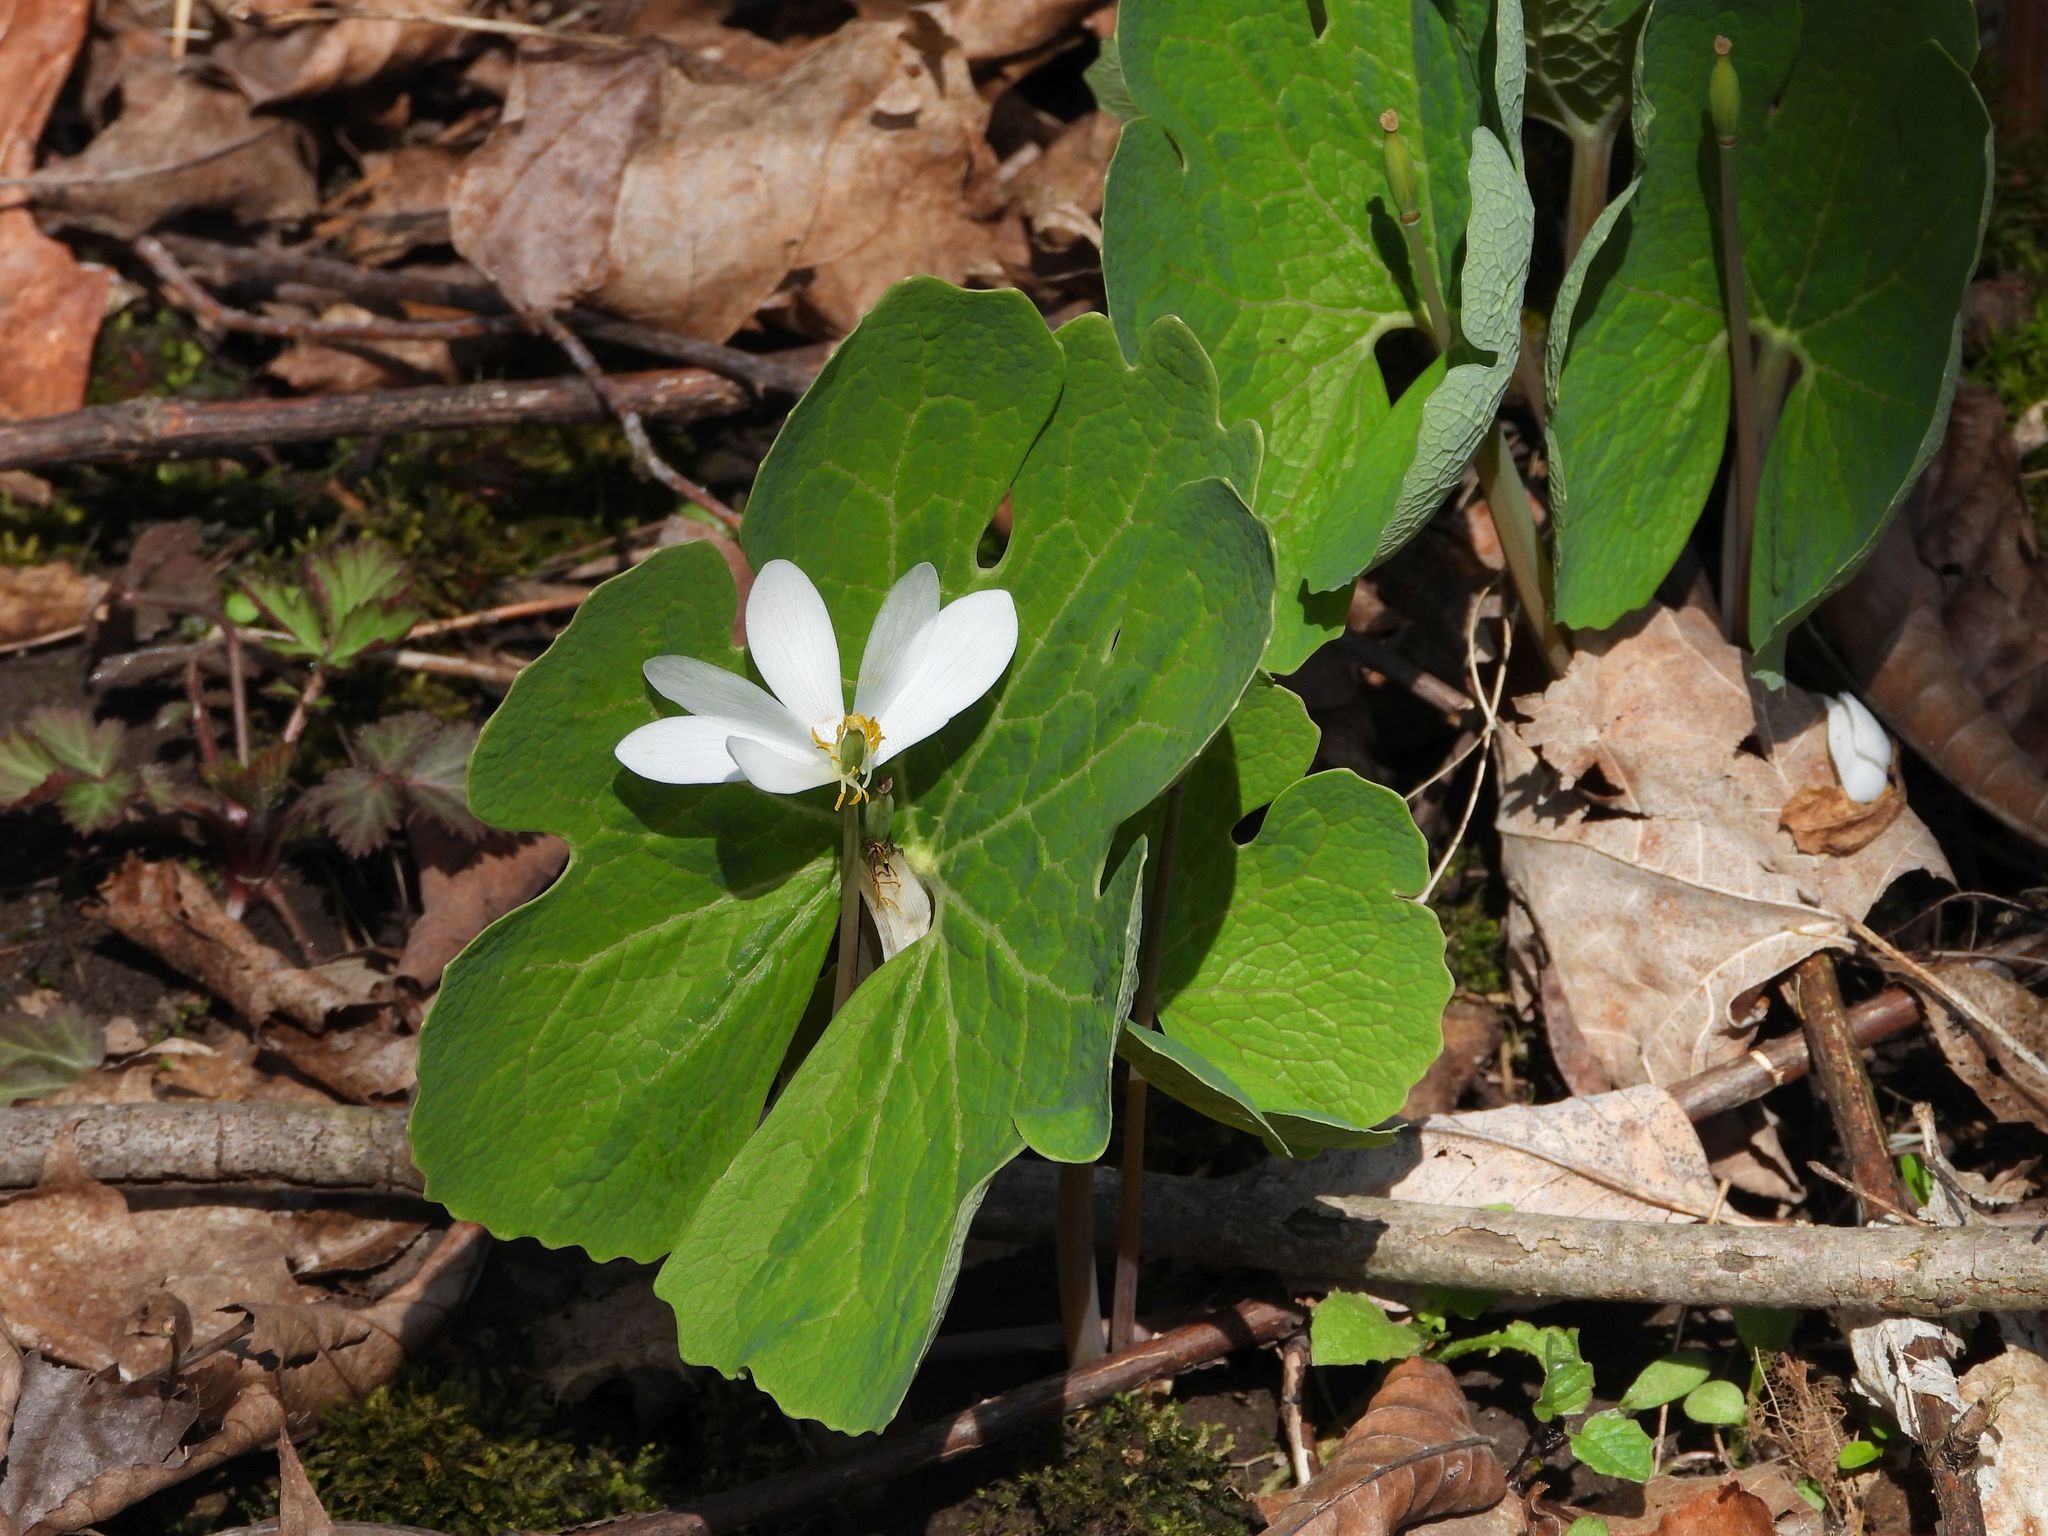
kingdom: Plantae
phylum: Tracheophyta
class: Magnoliopsida
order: Ranunculales
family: Papaveraceae
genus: Sanguinaria
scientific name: Sanguinaria canadensis
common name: Bloodroot
